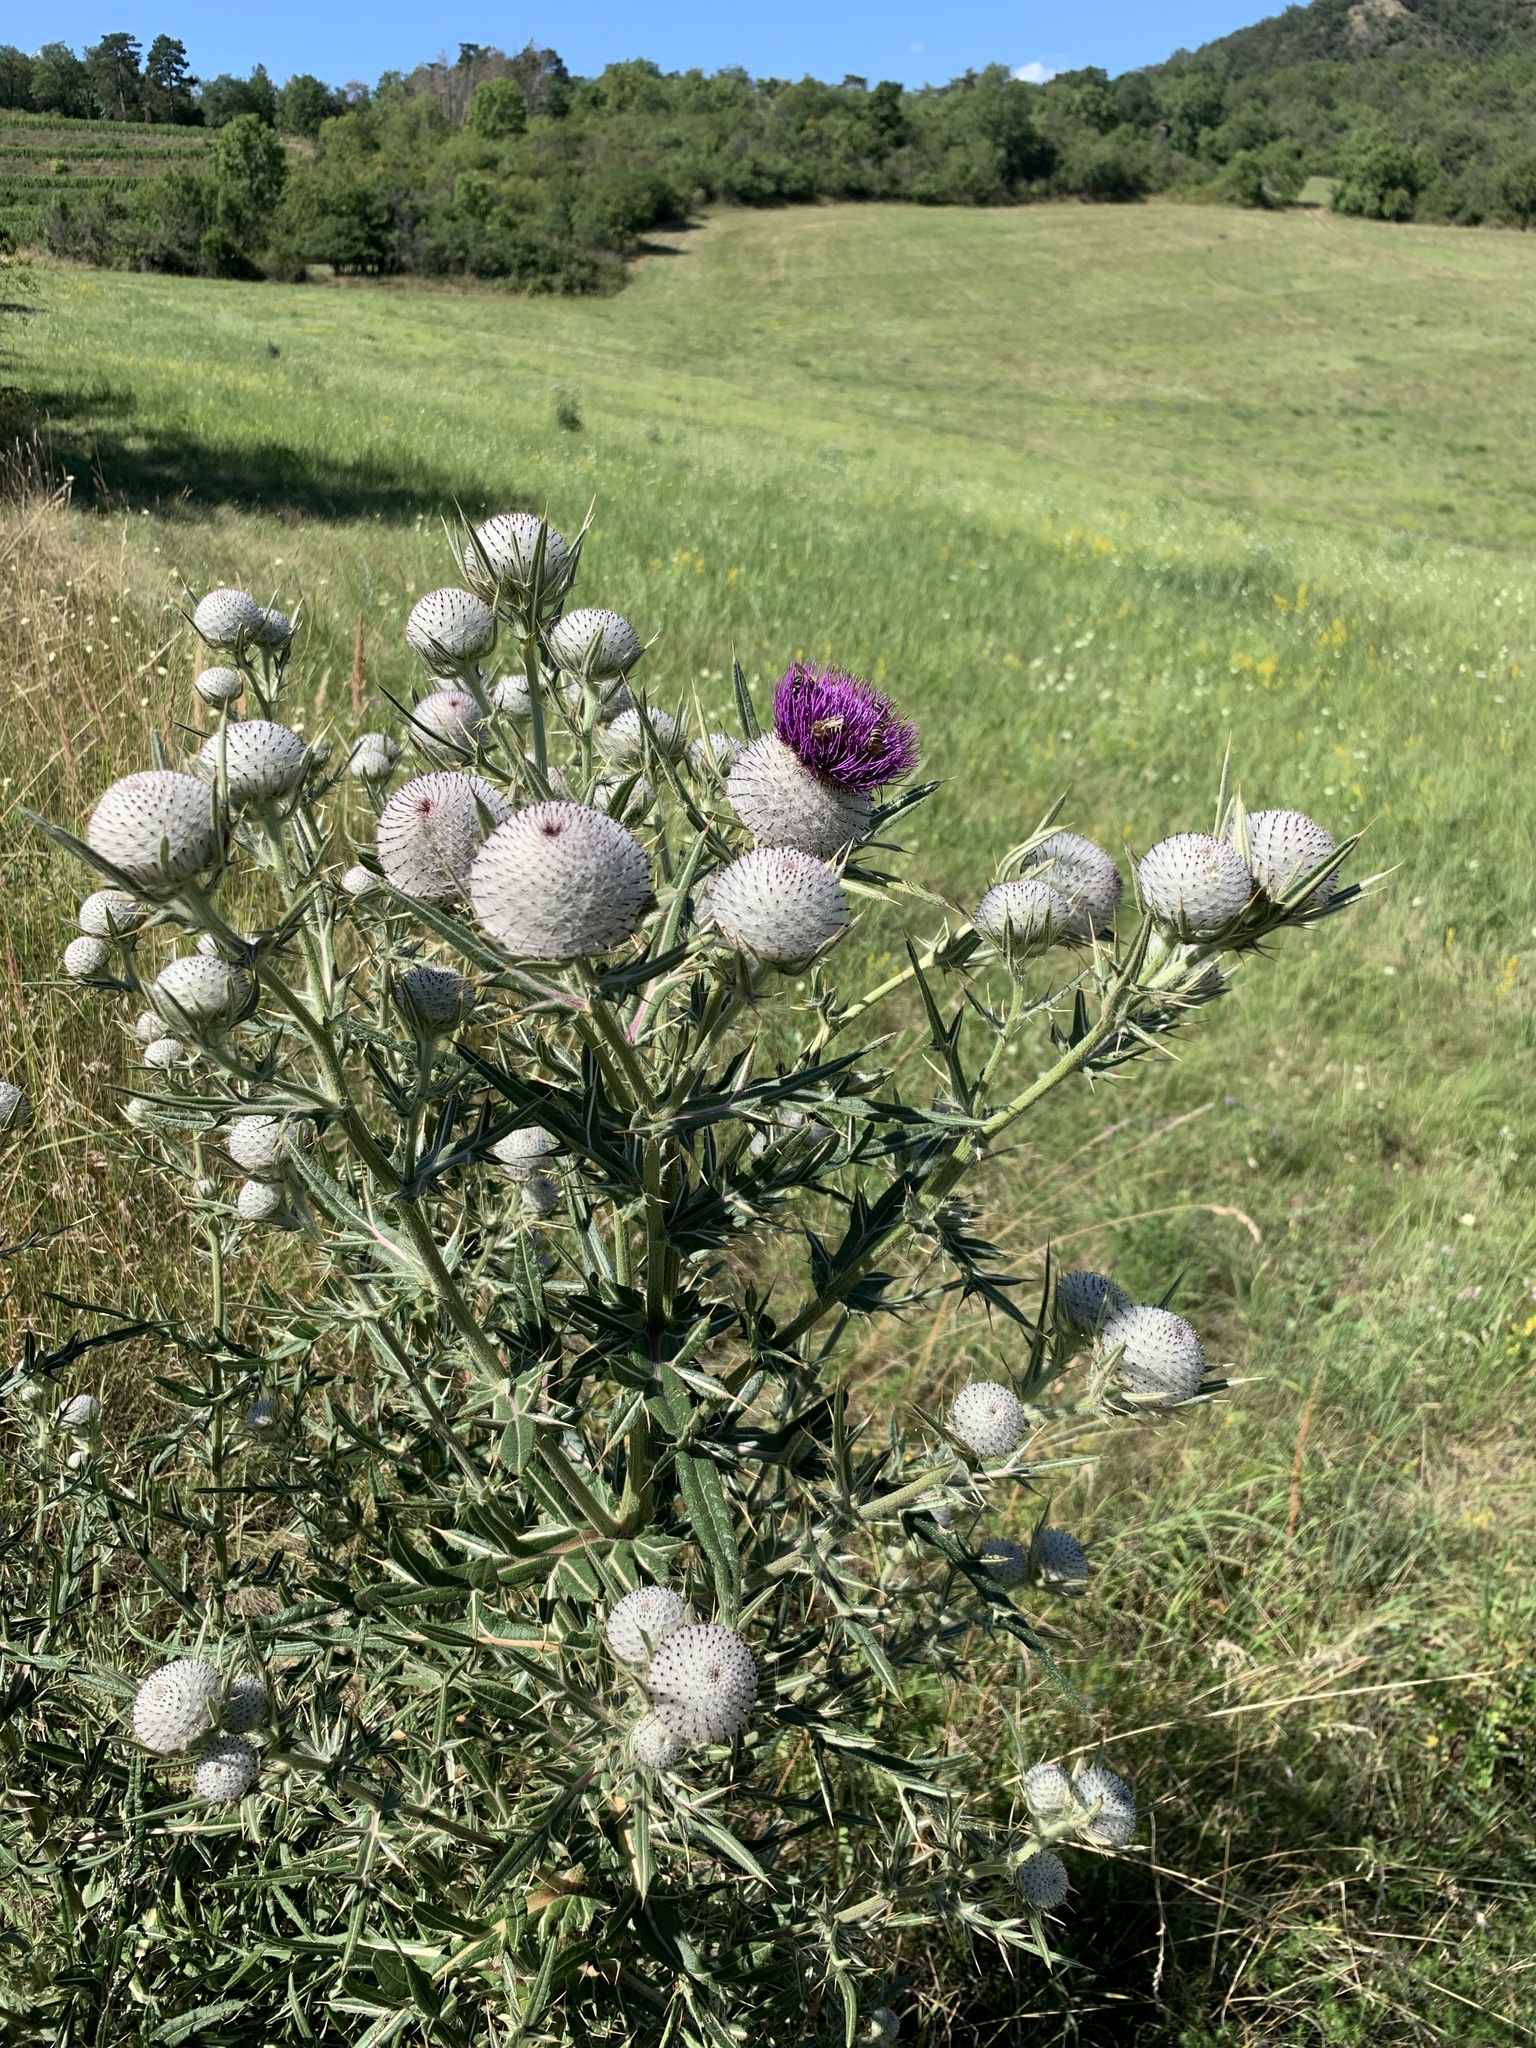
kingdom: Plantae
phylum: Tracheophyta
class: Magnoliopsida
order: Asterales
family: Asteraceae
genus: Lophiolepis
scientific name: Lophiolepis eriophora
